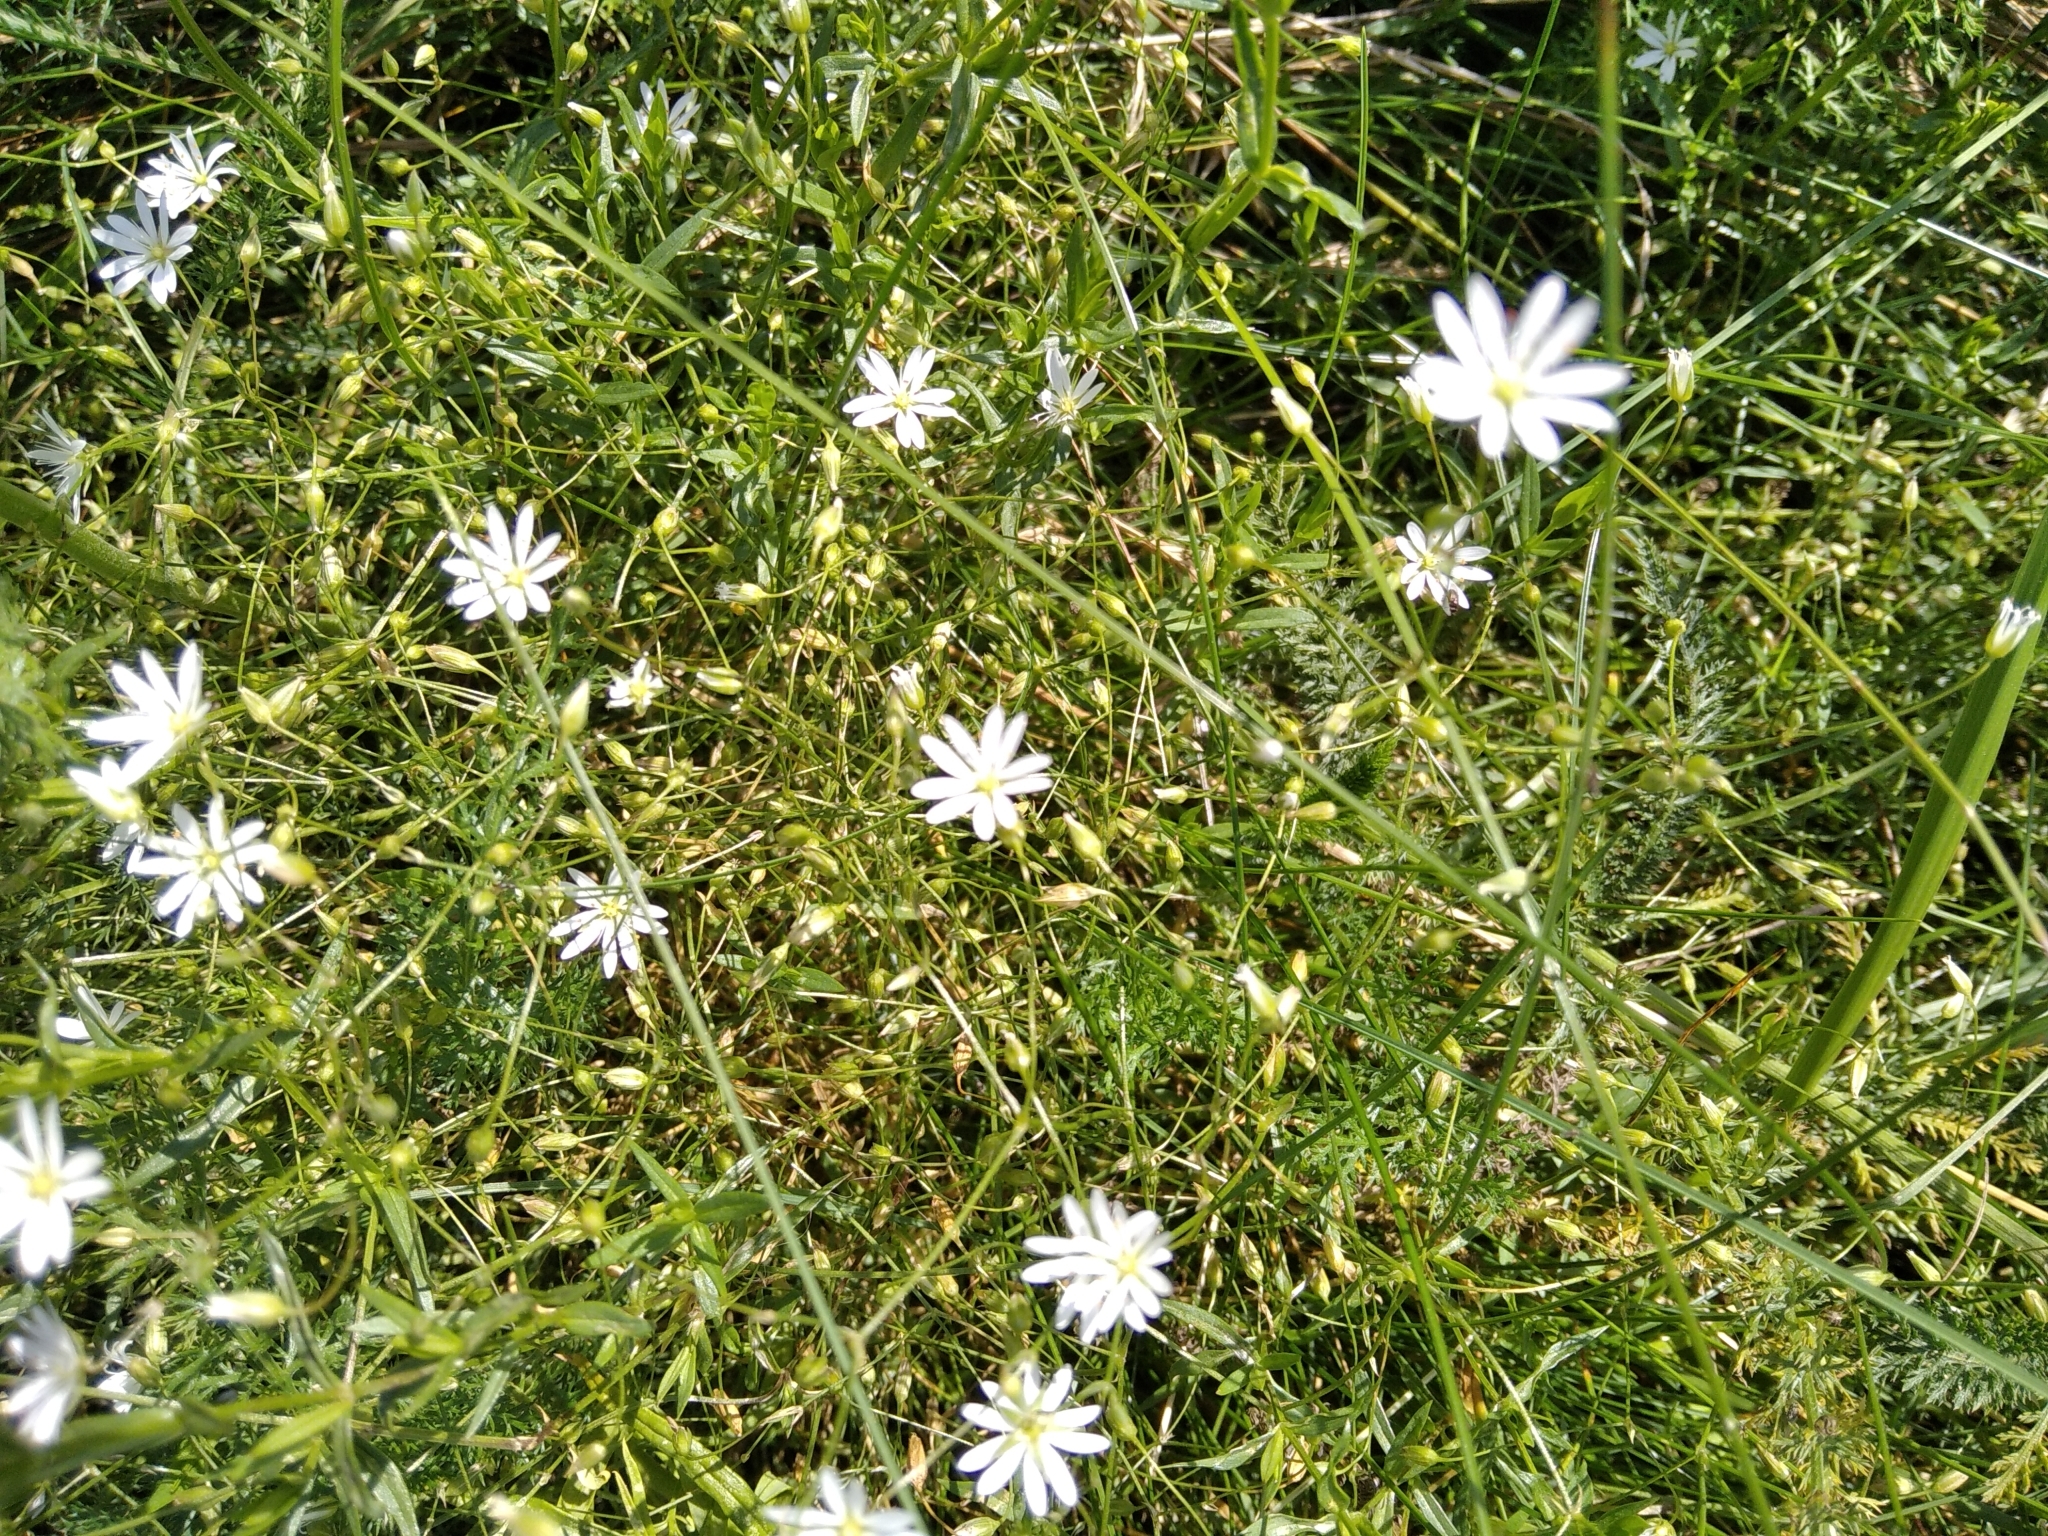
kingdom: Plantae
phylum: Tracheophyta
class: Magnoliopsida
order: Caryophyllales
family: Caryophyllaceae
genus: Stellaria
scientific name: Stellaria graminea
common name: Grass-like starwort
